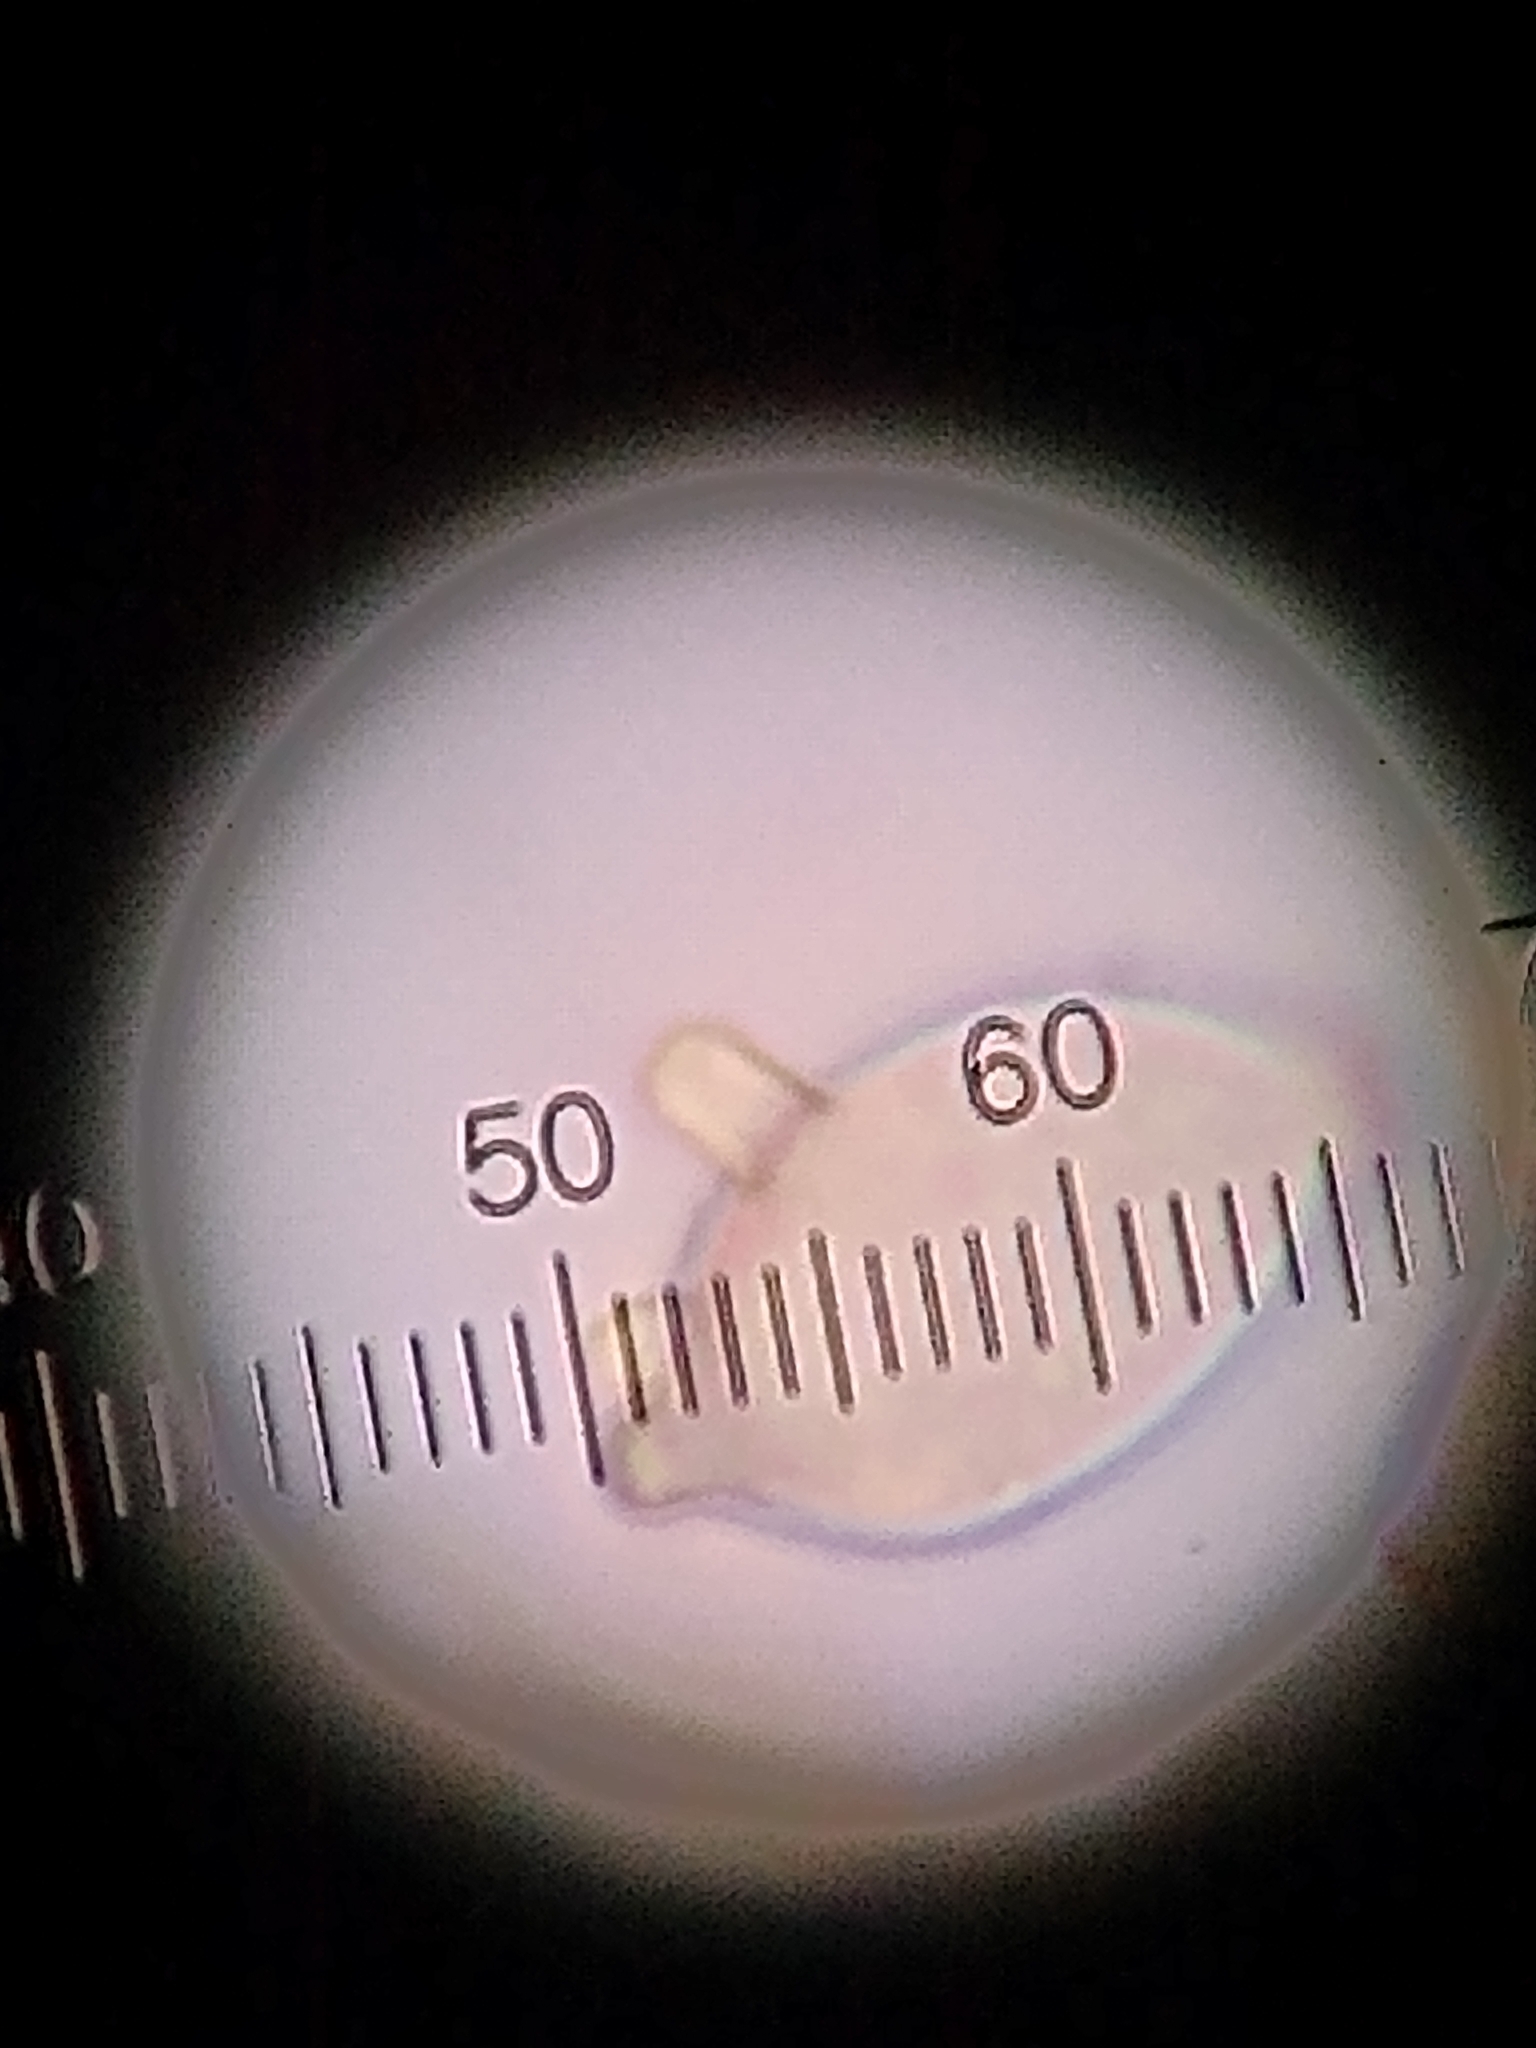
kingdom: Fungi
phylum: Basidiomycota
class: Agaricomycetes
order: Cantharellales
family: Botryobasidiaceae
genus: Botryobasidium
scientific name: Botryobasidium conspersum
